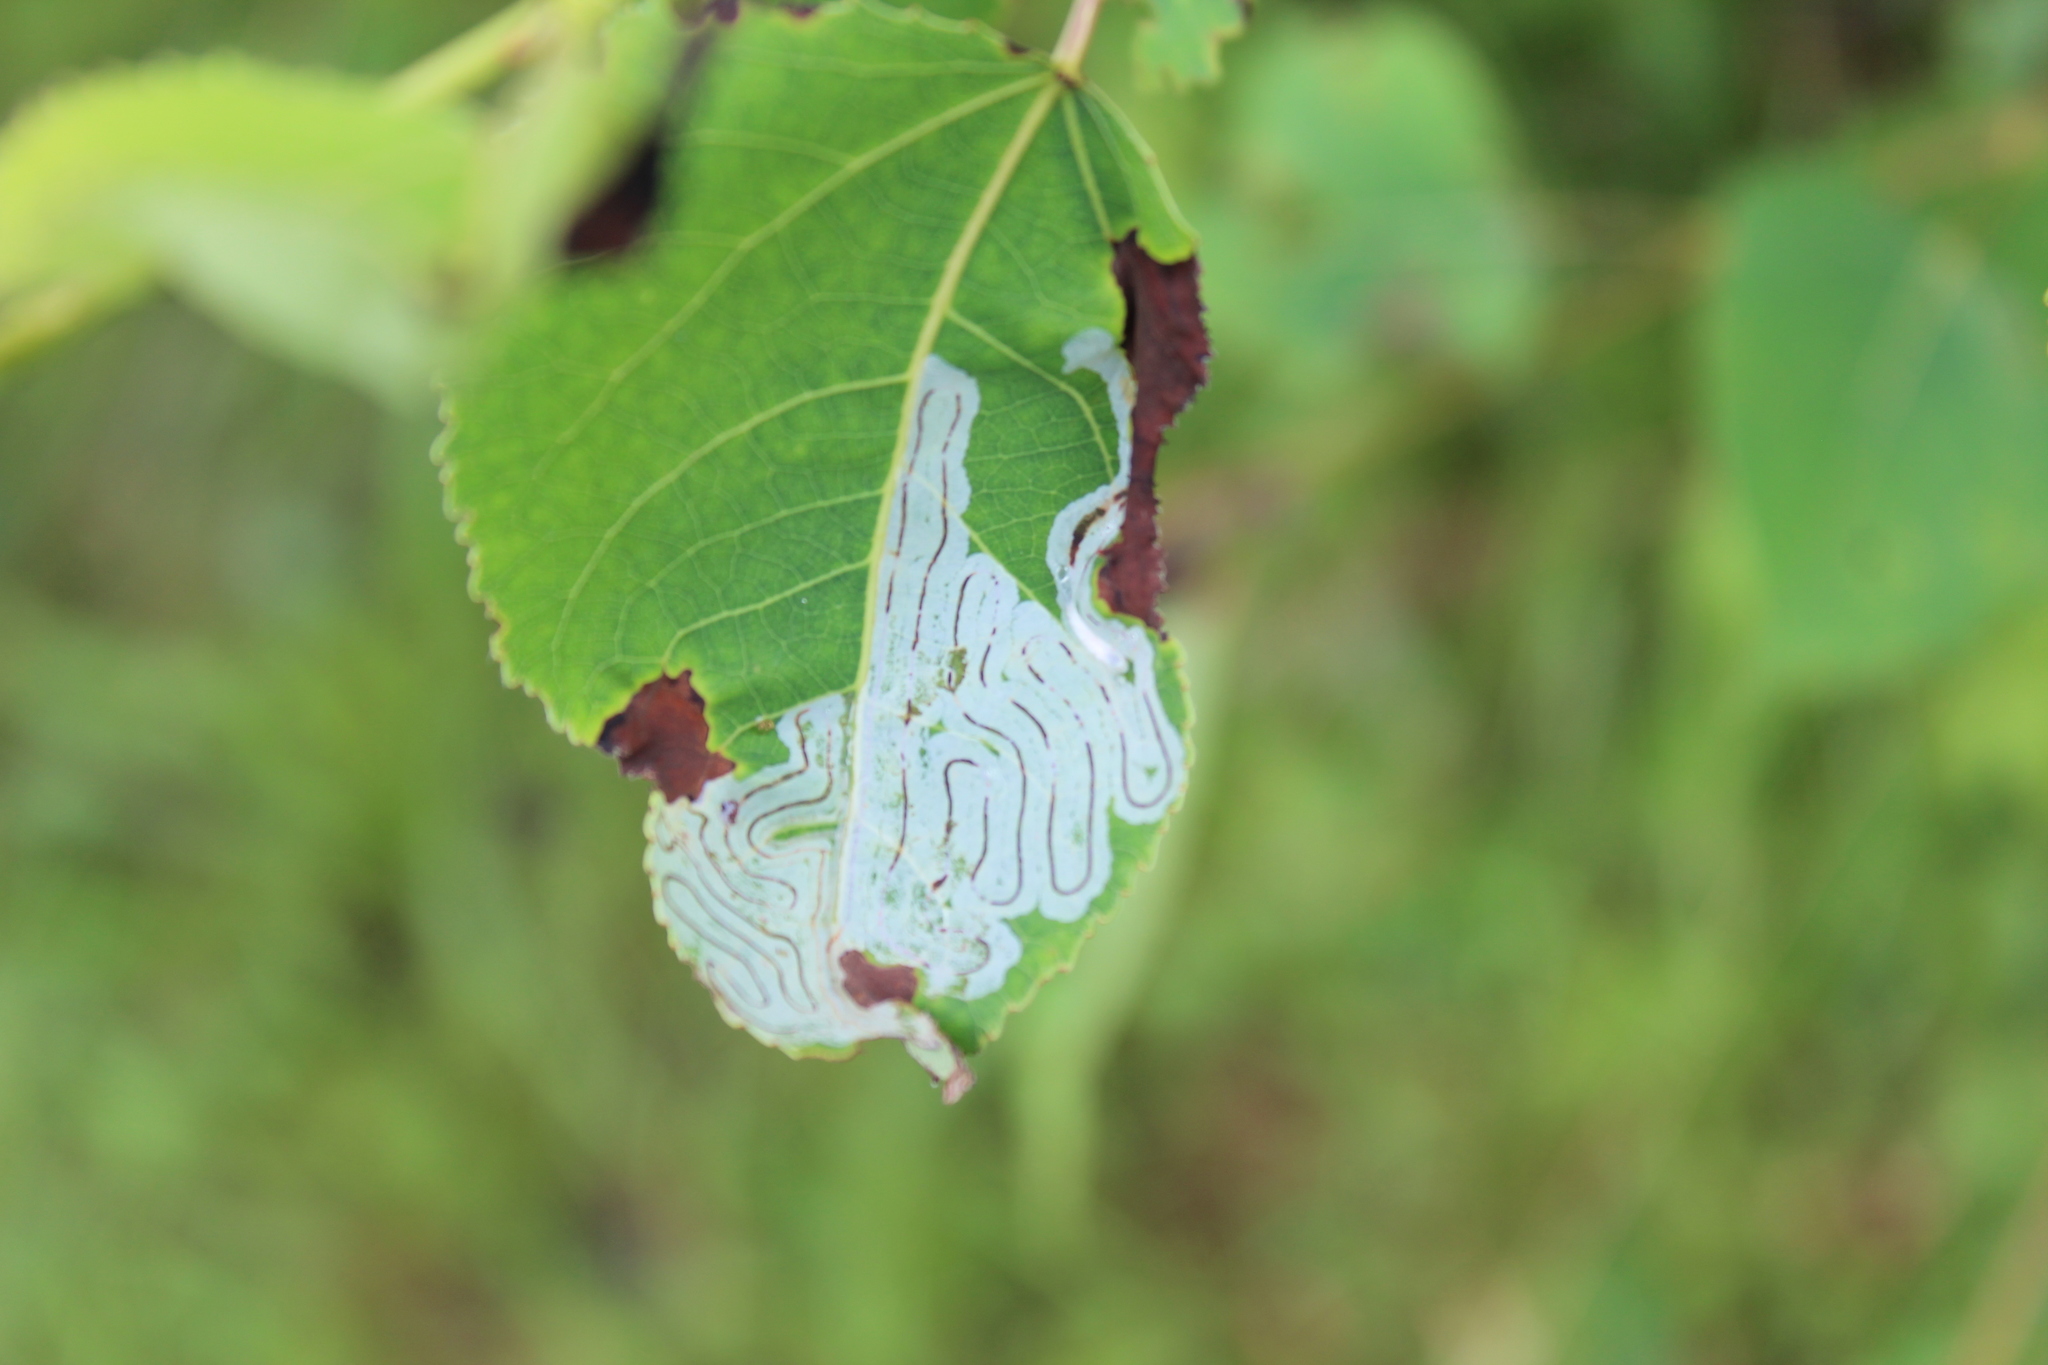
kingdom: Animalia
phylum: Arthropoda
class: Insecta
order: Lepidoptera
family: Gracillariidae
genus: Phyllocnistis
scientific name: Phyllocnistis populiella
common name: Aspen serpentine leafminer moth
